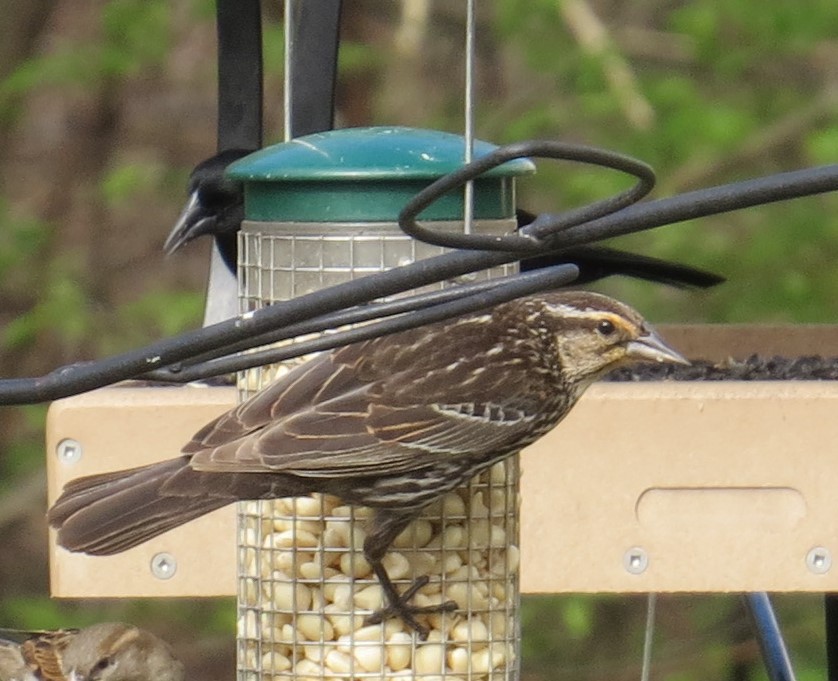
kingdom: Animalia
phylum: Chordata
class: Aves
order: Passeriformes
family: Icteridae
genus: Agelaius
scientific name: Agelaius phoeniceus
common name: Red-winged blackbird
